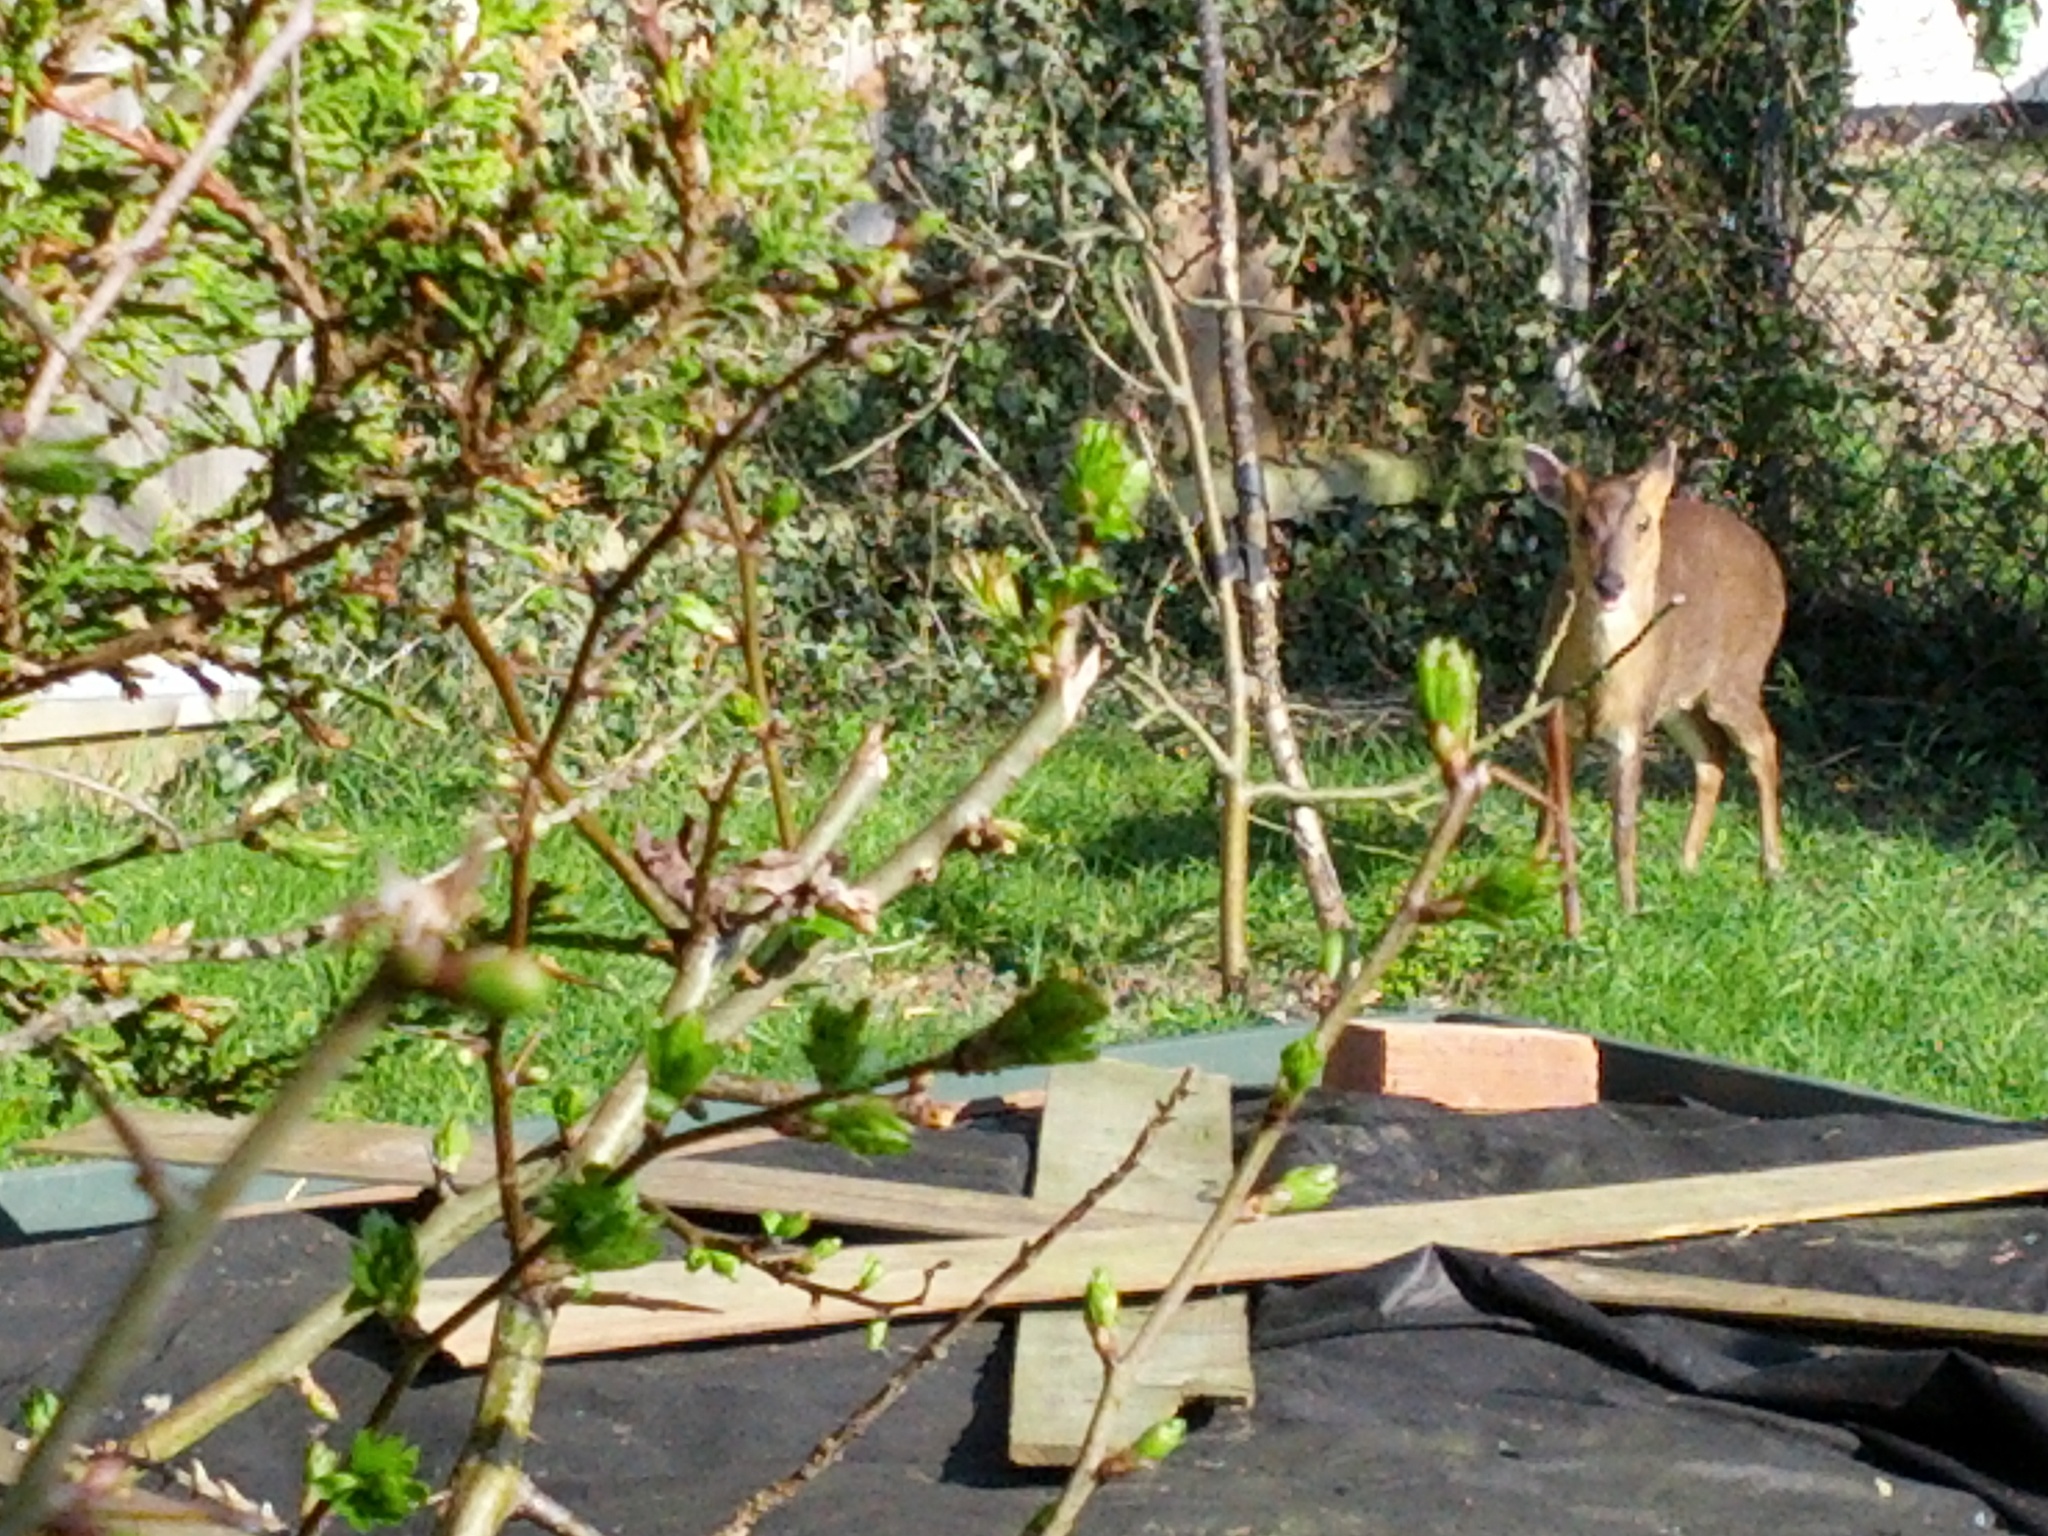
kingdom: Animalia
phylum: Chordata
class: Mammalia
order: Artiodactyla
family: Cervidae
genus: Muntiacus
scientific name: Muntiacus reevesi
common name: Reeves' muntjac
